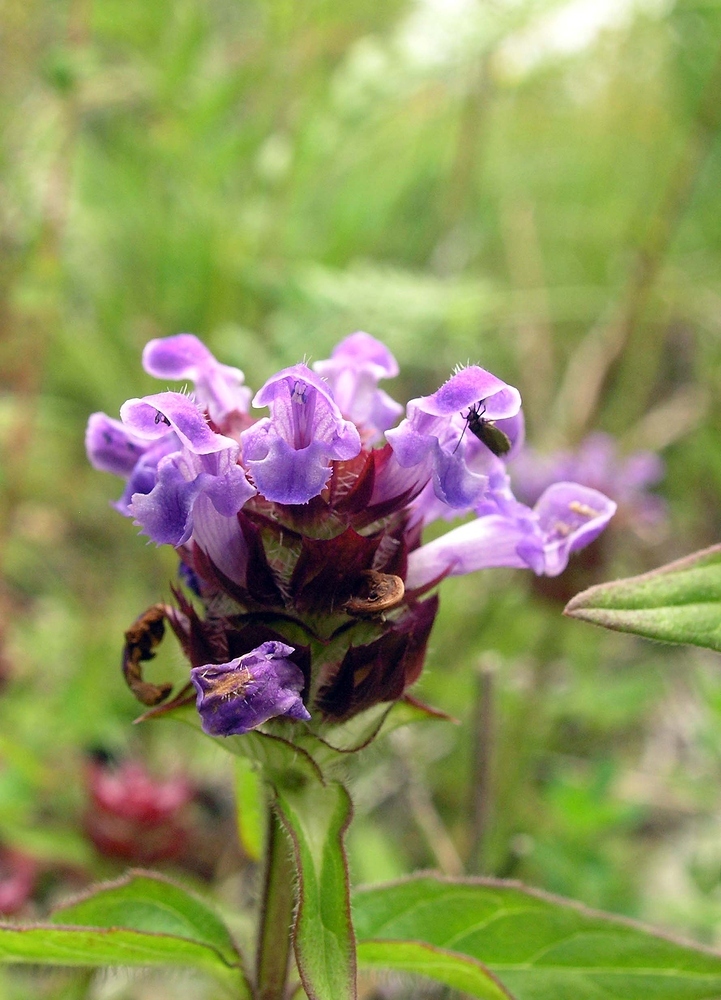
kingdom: Plantae
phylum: Tracheophyta
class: Magnoliopsida
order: Lamiales
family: Lamiaceae
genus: Prunella
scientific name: Prunella vulgaris
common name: Heal-all
